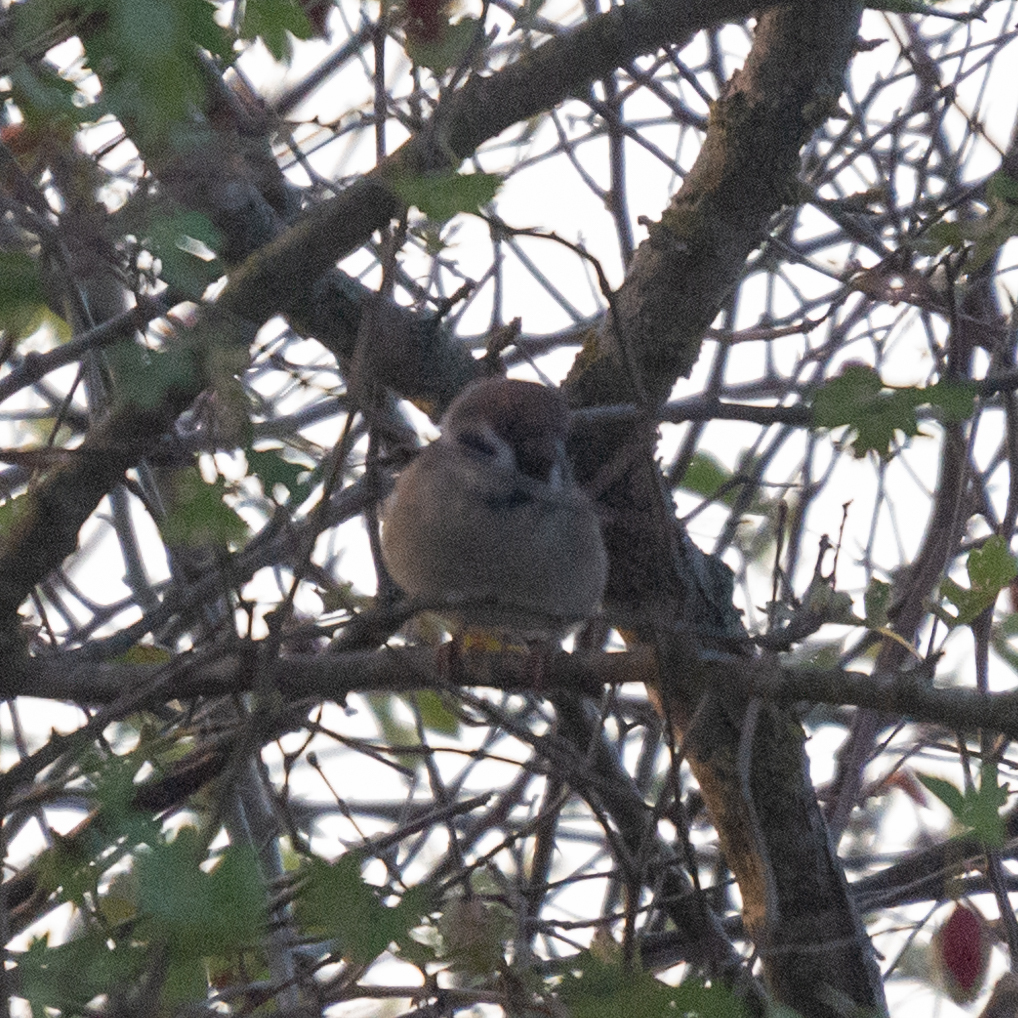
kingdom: Animalia
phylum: Chordata
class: Aves
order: Passeriformes
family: Passeridae
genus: Passer
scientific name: Passer montanus
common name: Eurasian tree sparrow
